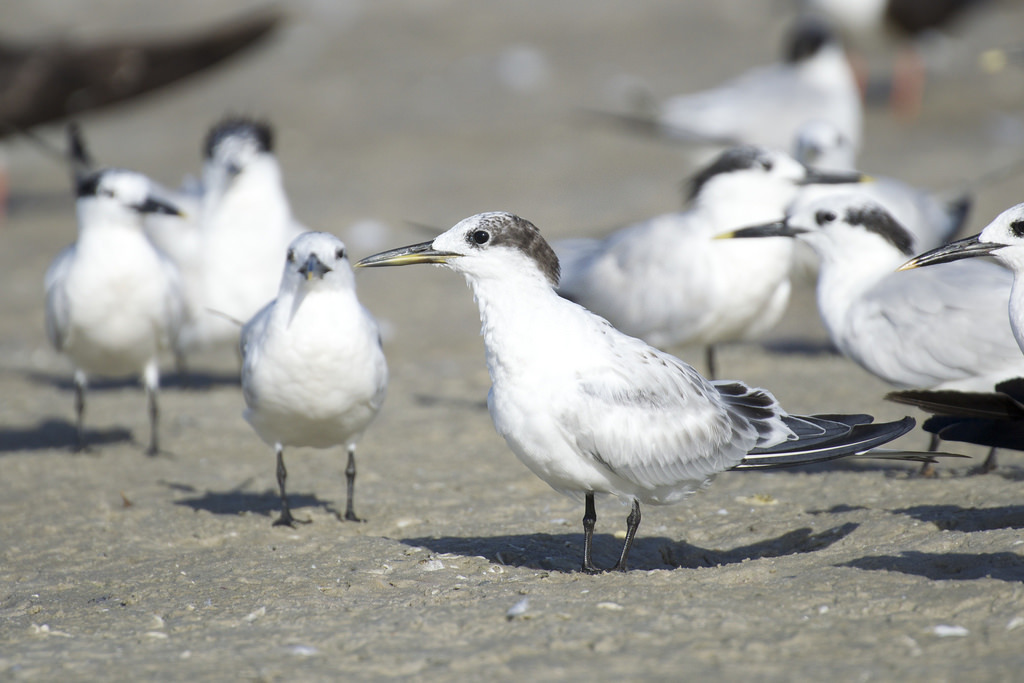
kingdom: Animalia
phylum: Chordata
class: Aves
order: Charadriiformes
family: Laridae
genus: Thalasseus
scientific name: Thalasseus sandvicensis
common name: Sandwich tern
